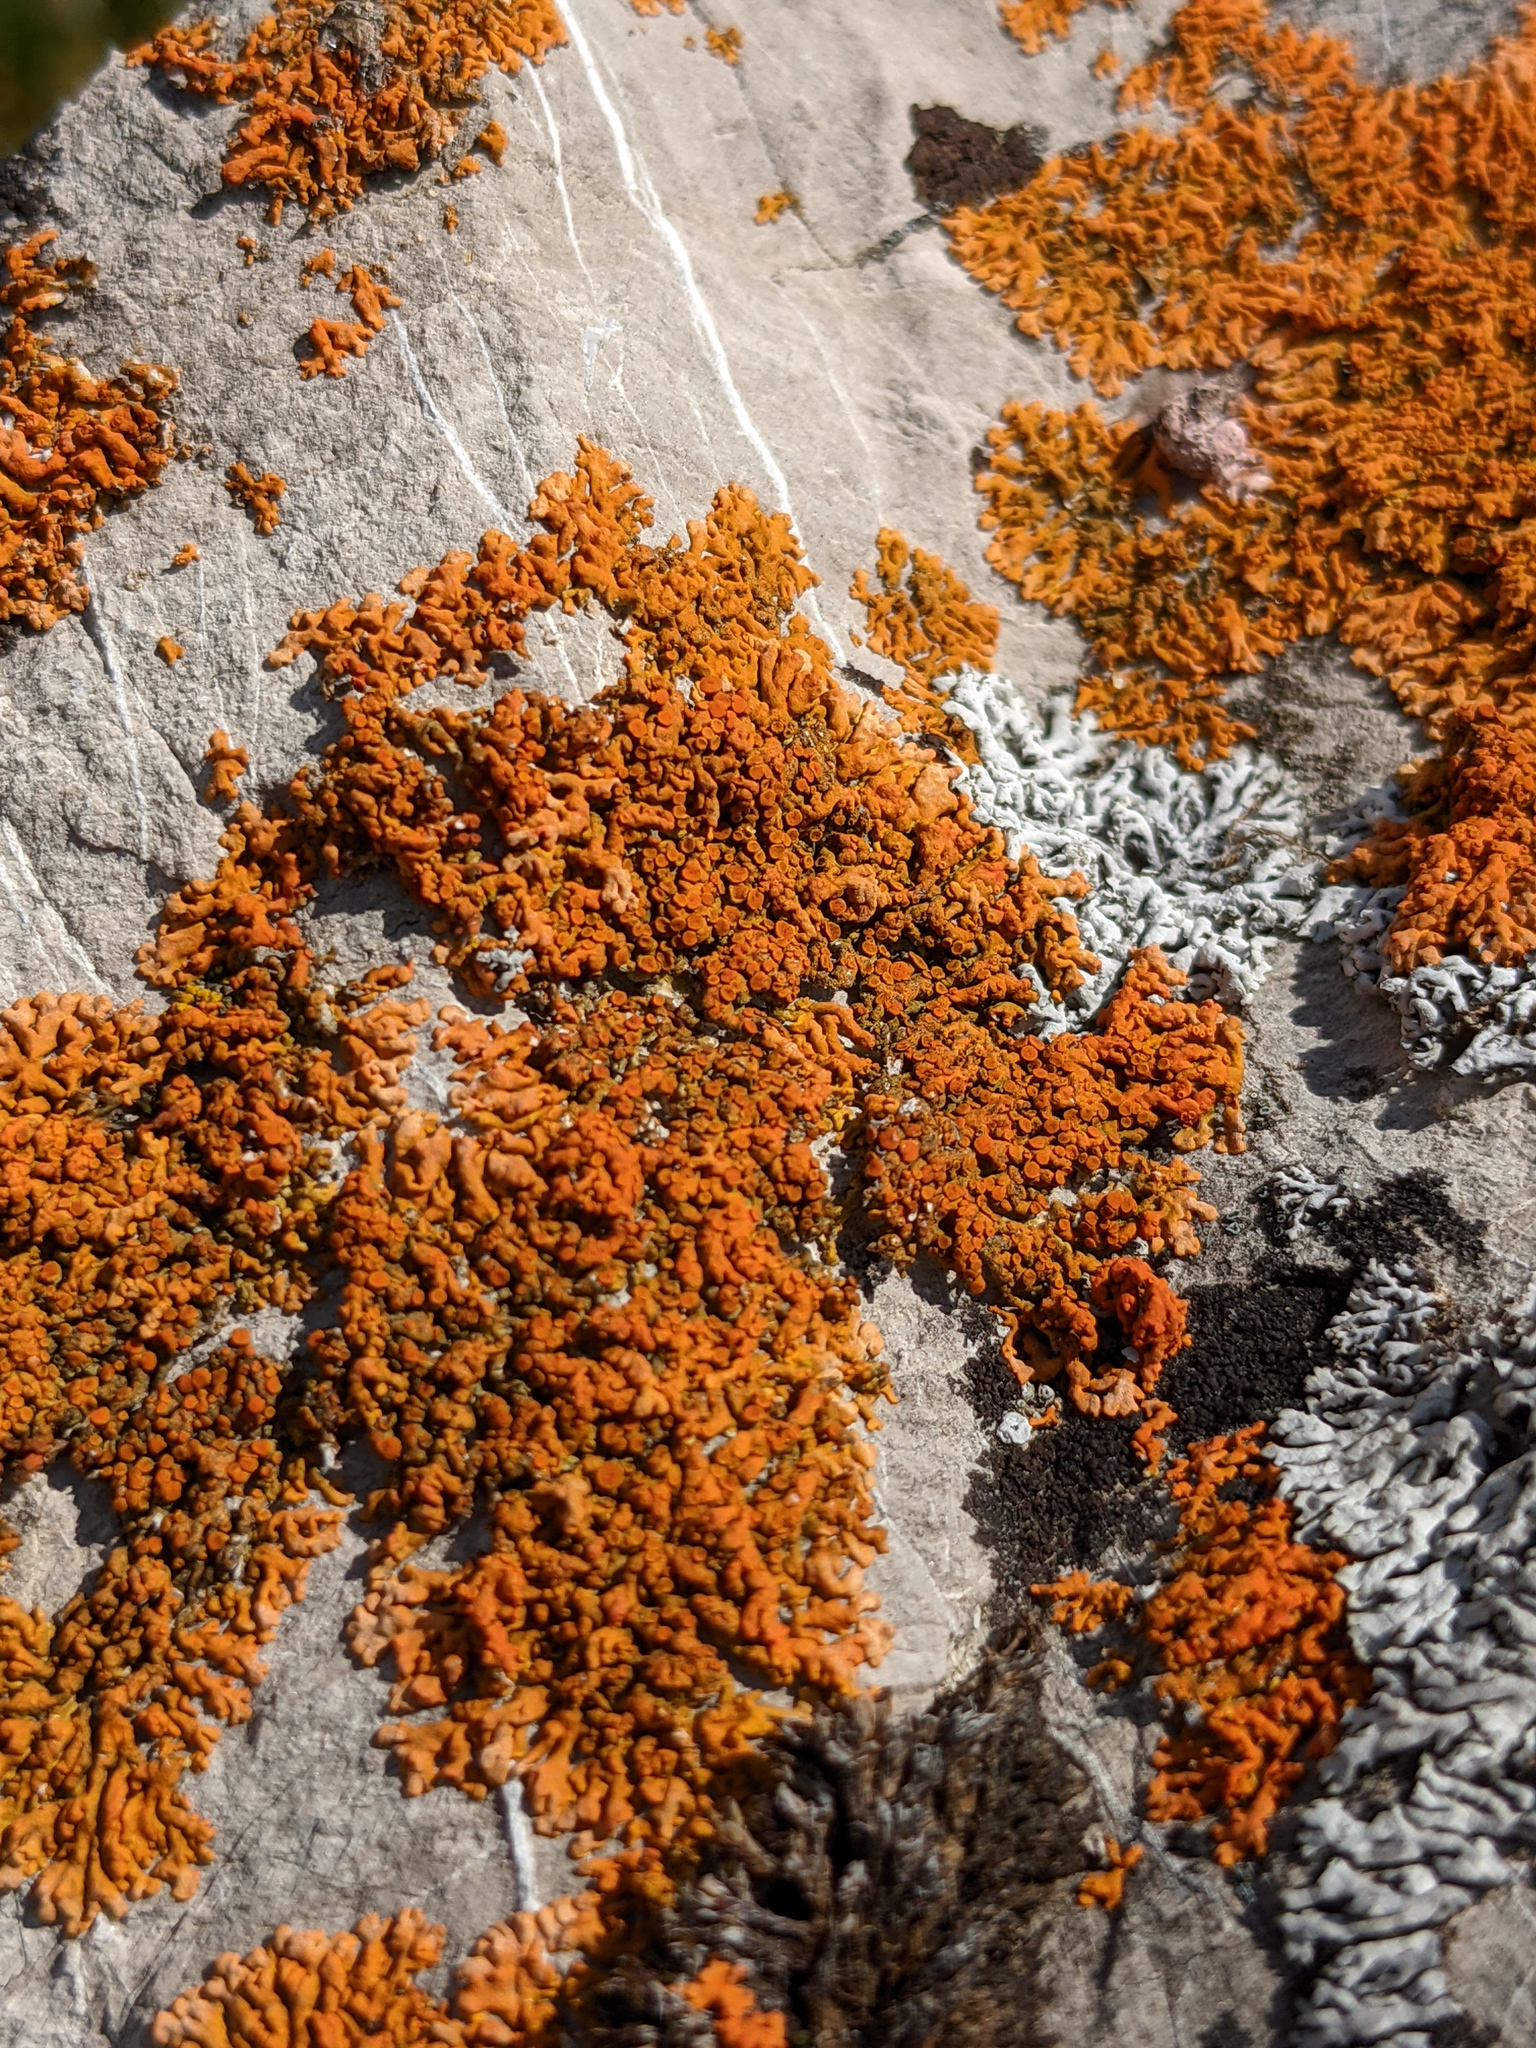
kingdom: Fungi
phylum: Ascomycota
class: Lecanoromycetes
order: Teloschistales
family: Teloschistaceae
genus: Xanthoria
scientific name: Xanthoria elegans
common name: Elegant sunburst lichen
